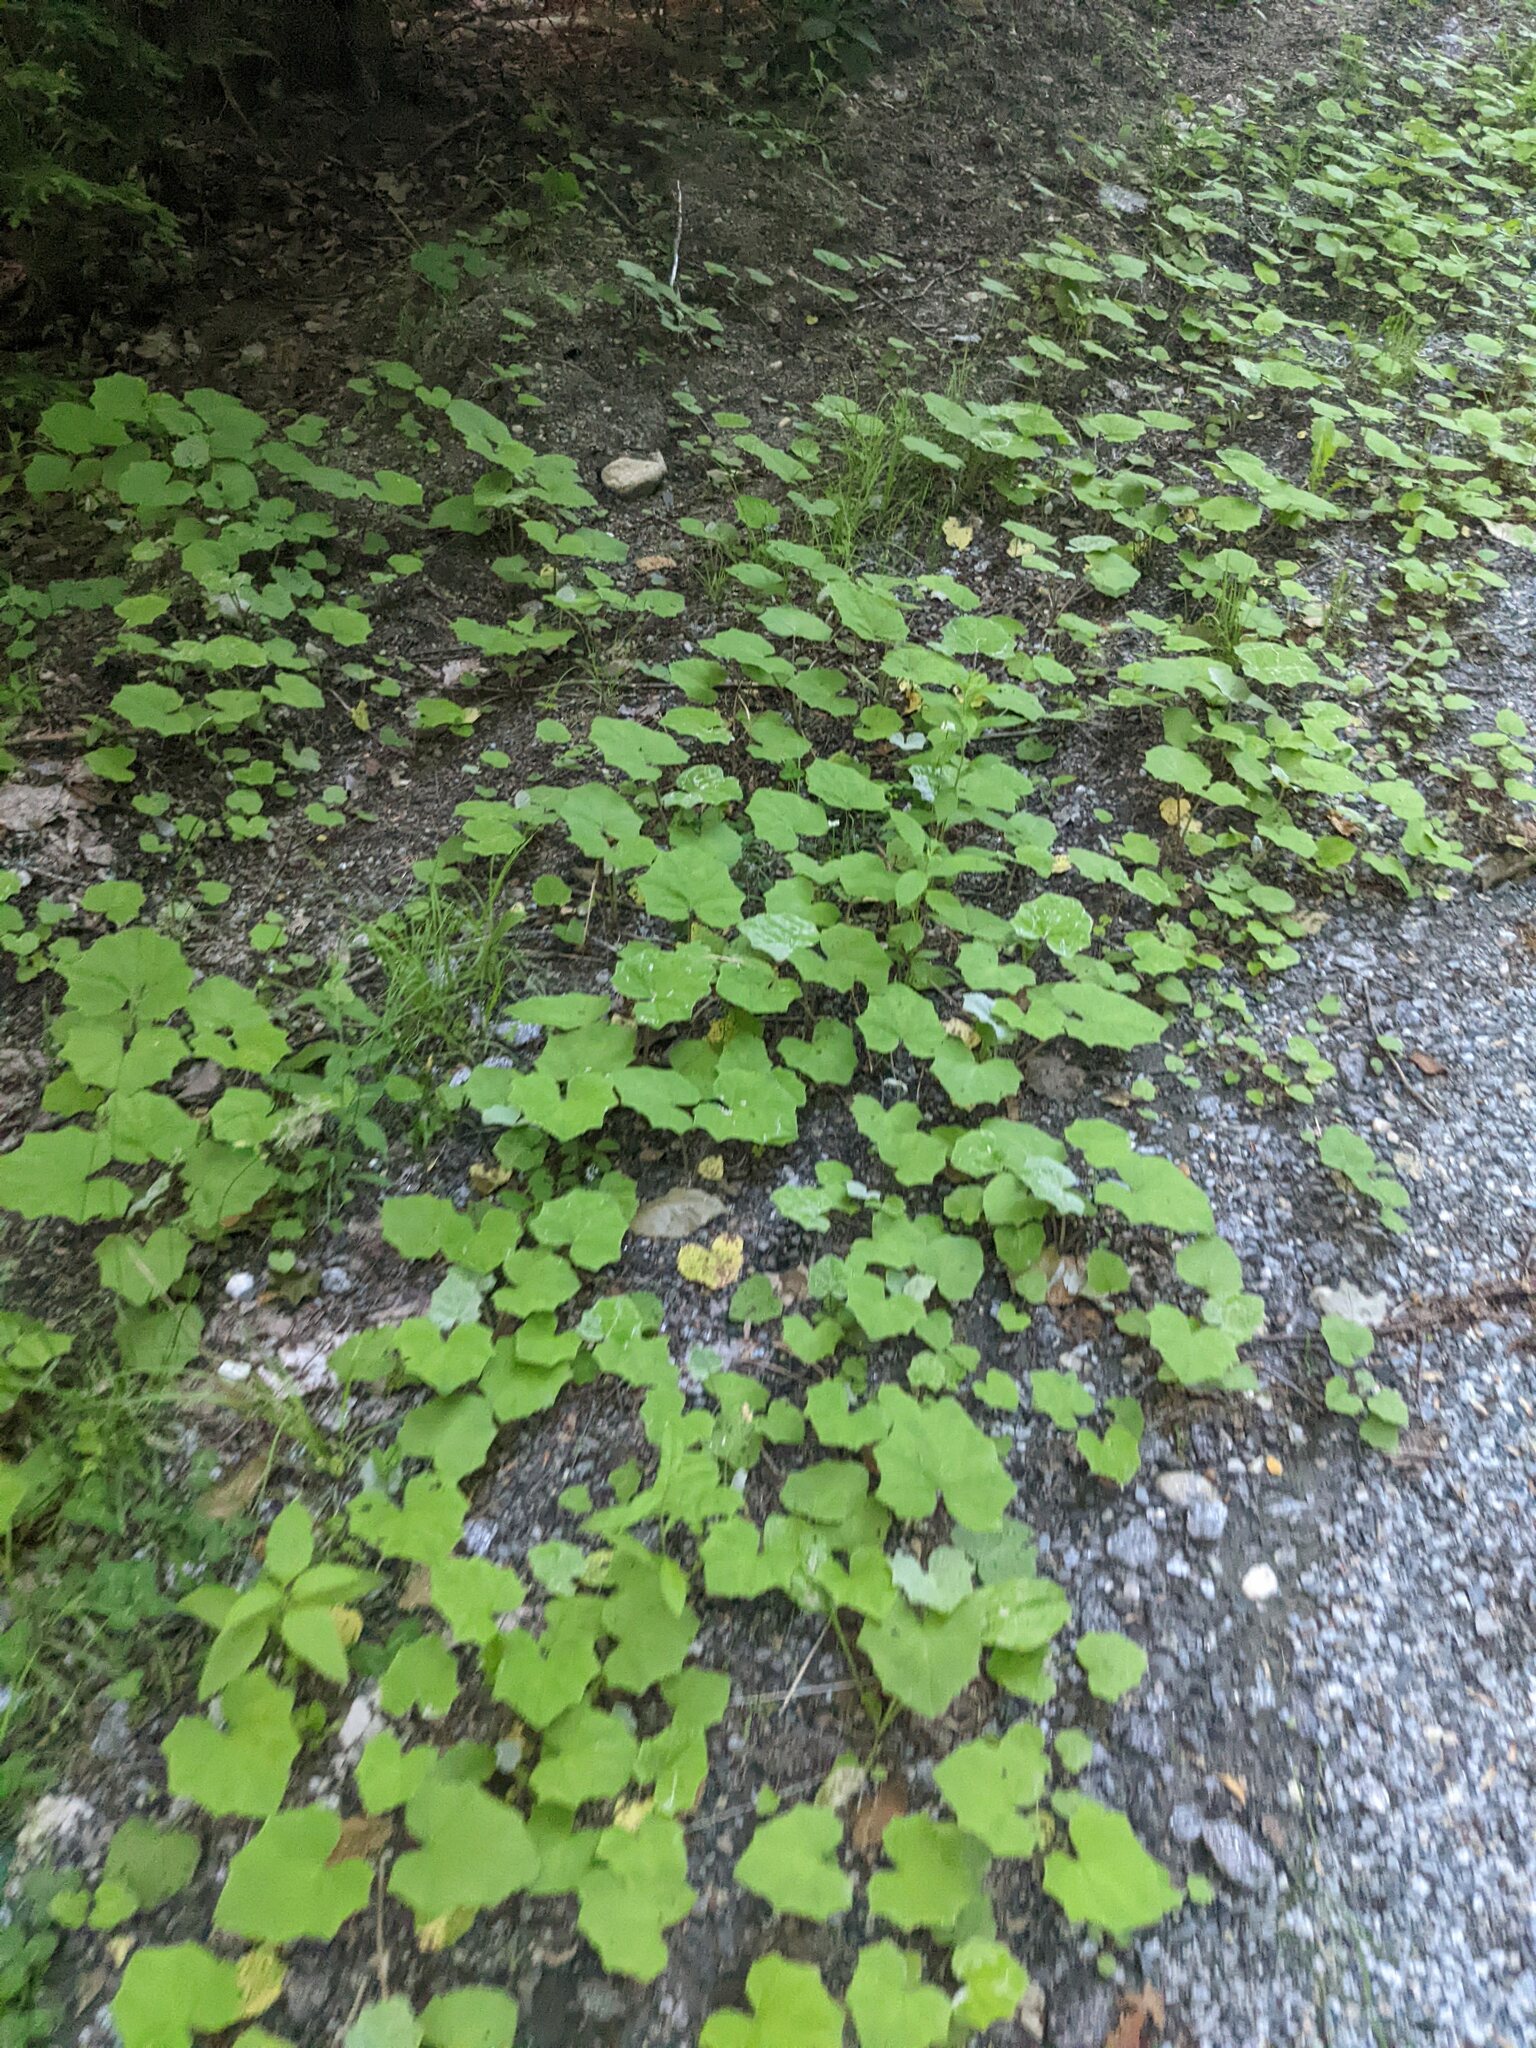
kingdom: Plantae
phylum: Tracheophyta
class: Magnoliopsida
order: Asterales
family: Asteraceae
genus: Tussilago
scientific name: Tussilago farfara
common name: Coltsfoot
